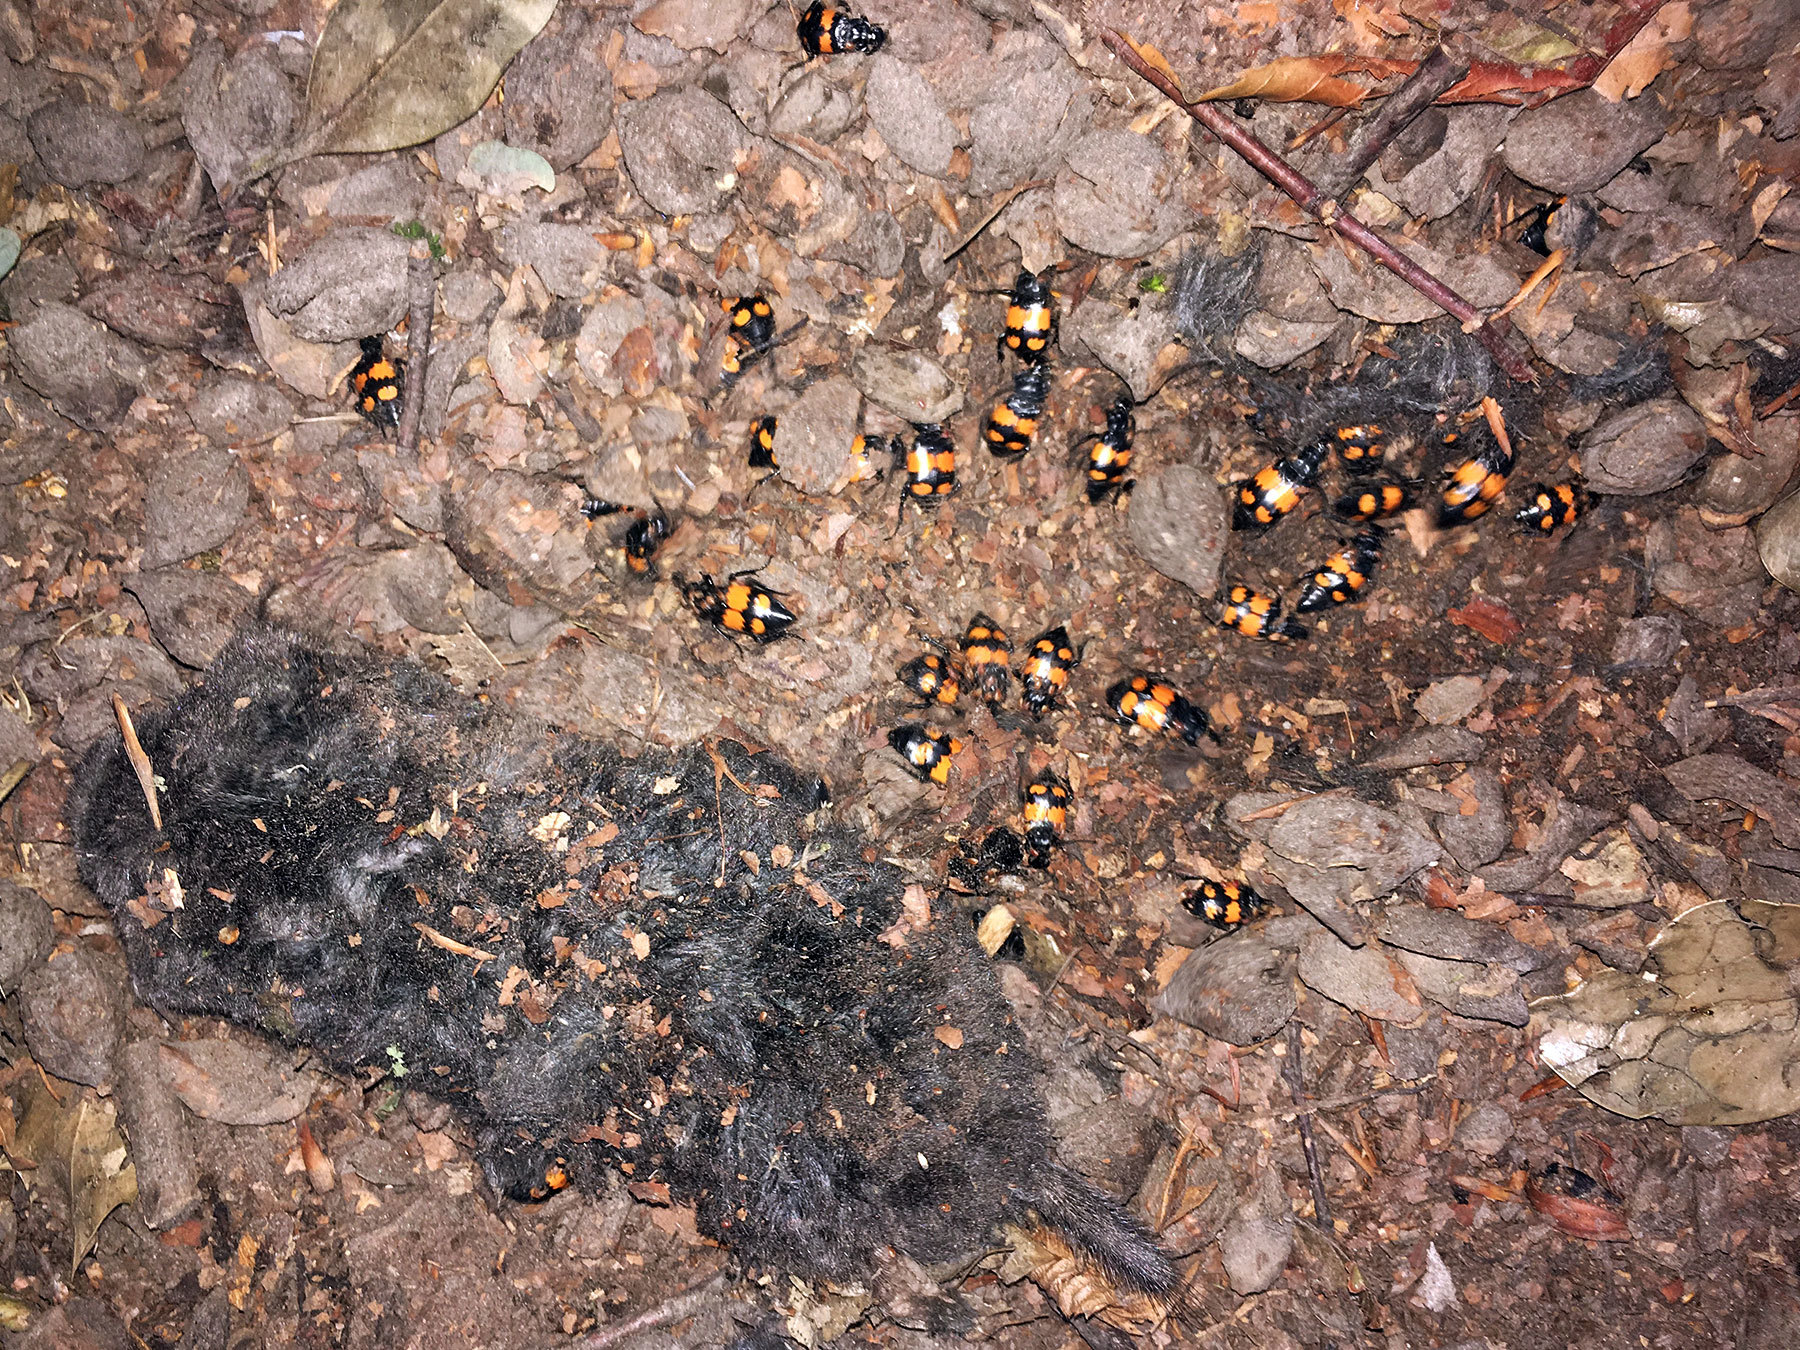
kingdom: Animalia
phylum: Arthropoda
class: Insecta
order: Coleoptera
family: Staphylinidae
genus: Nicrophorus
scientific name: Nicrophorus vespilloides
